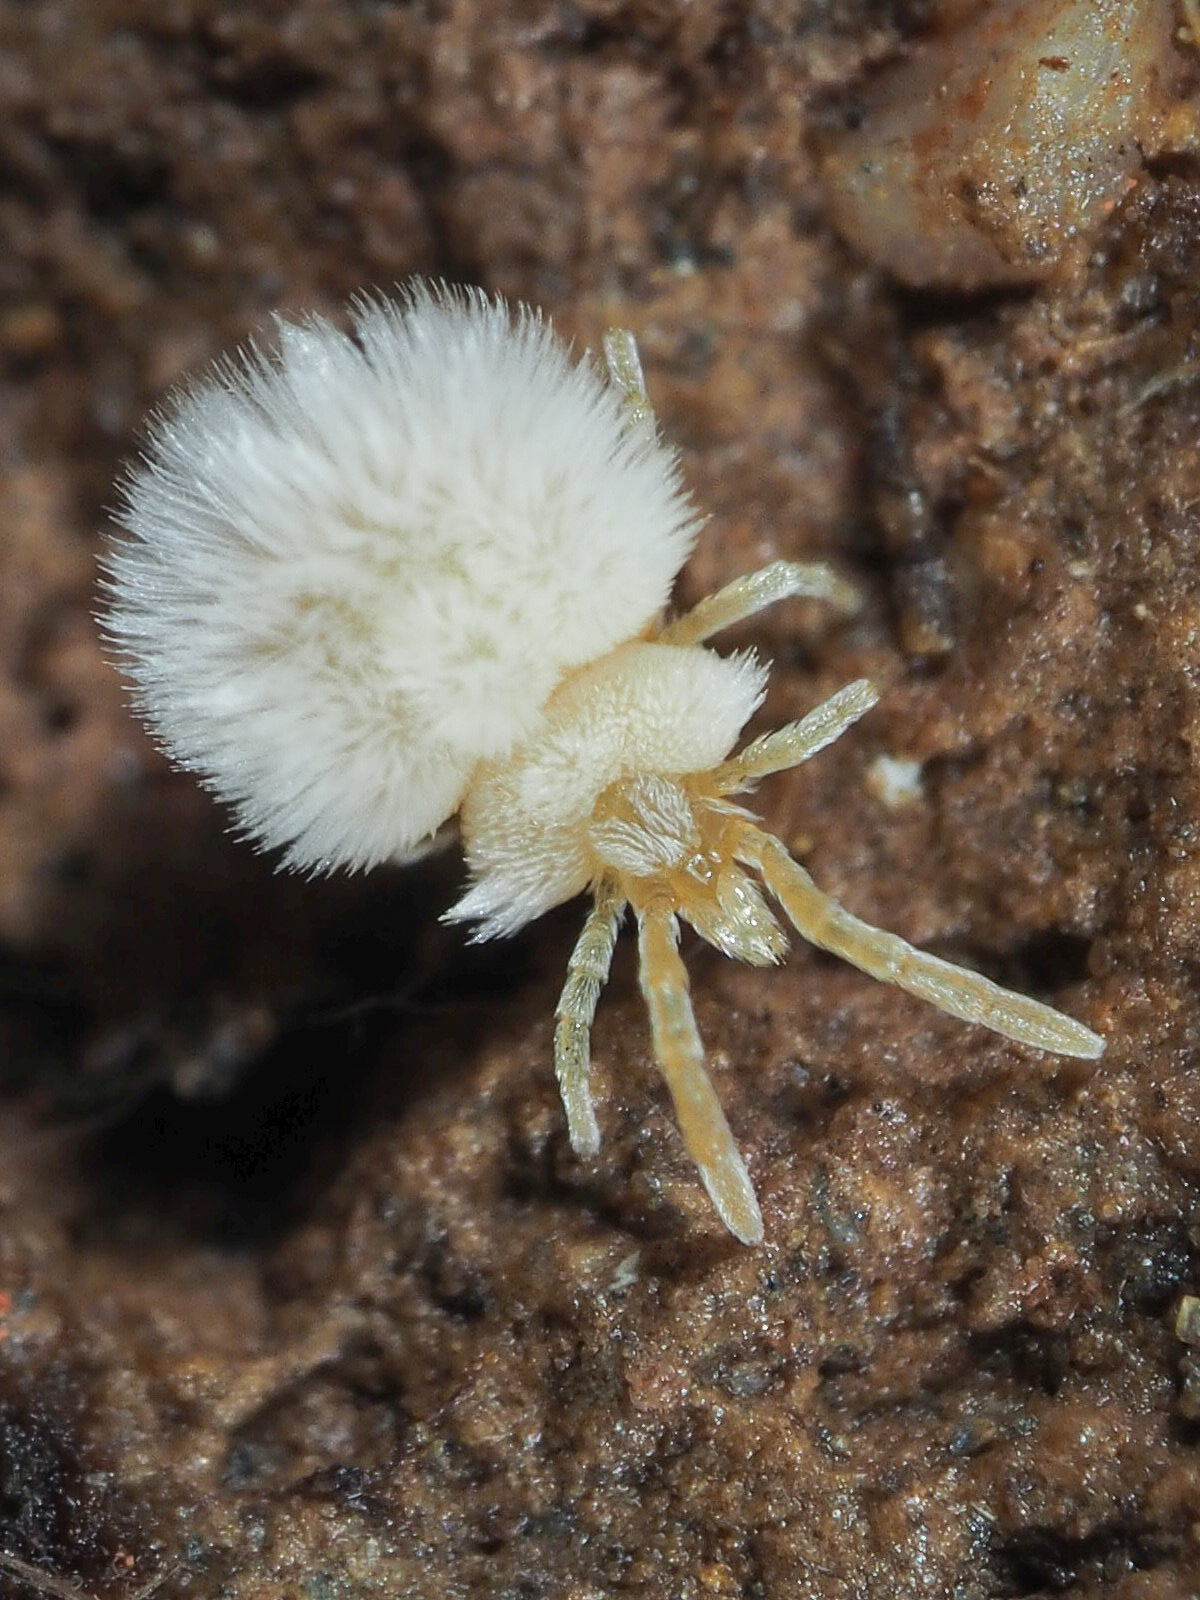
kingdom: Animalia
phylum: Arthropoda
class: Arachnida
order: Trombidiformes
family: Trombiculidae
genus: Hirsutiella
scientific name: Hirsutiella zachvatkini
